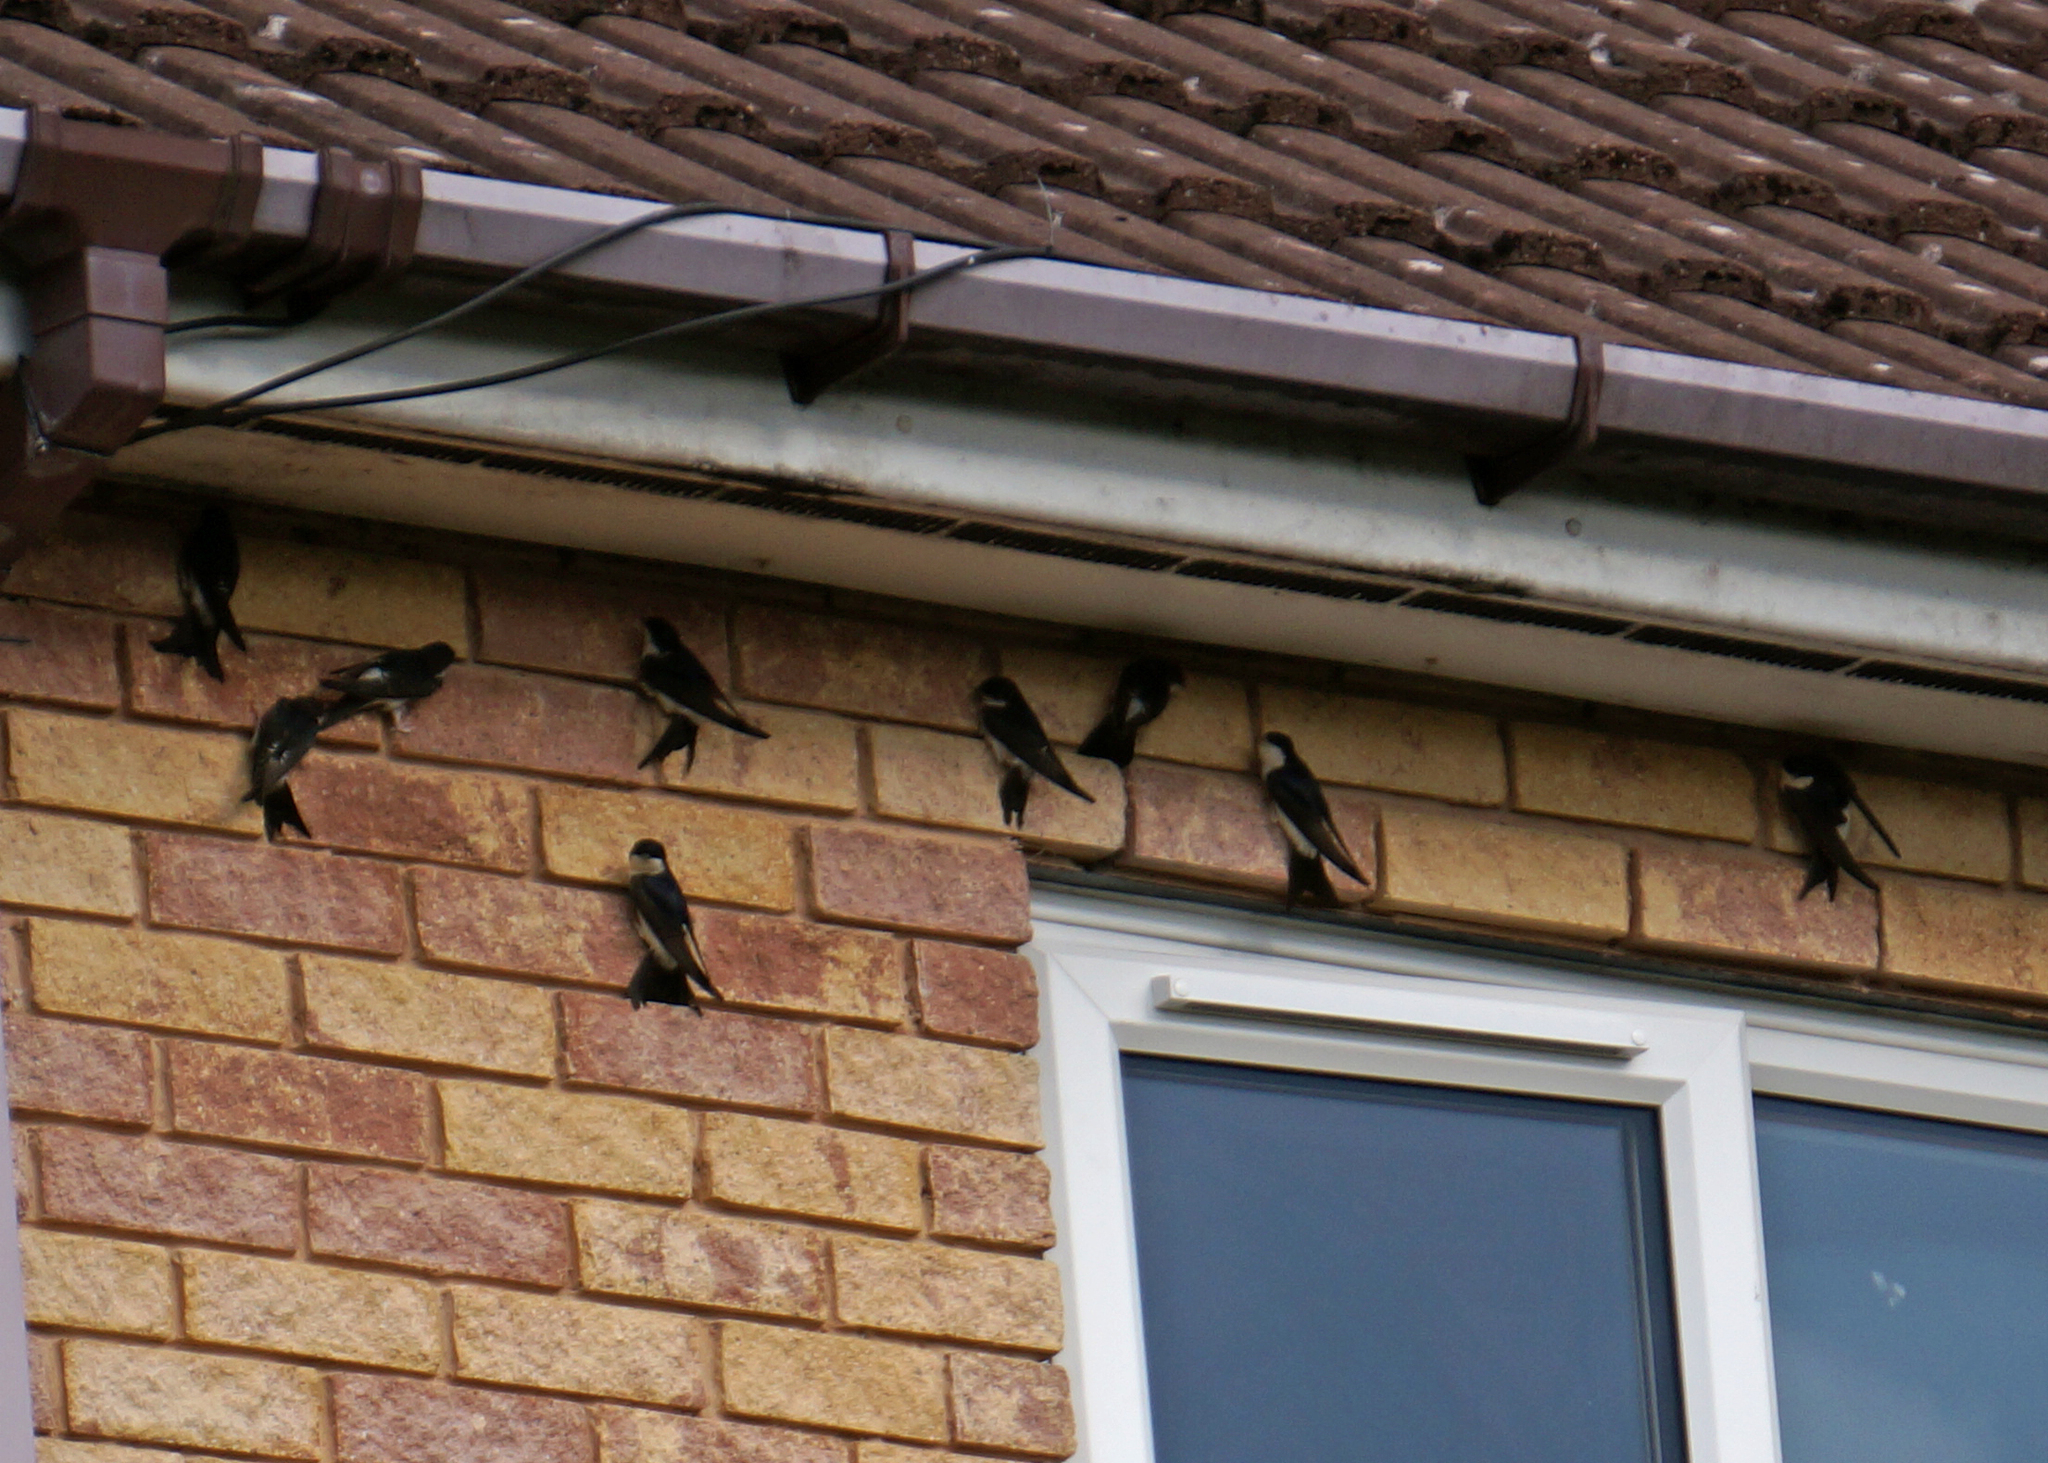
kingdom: Animalia
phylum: Chordata
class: Aves
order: Passeriformes
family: Hirundinidae
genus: Delichon
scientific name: Delichon urbicum
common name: Common house martin
